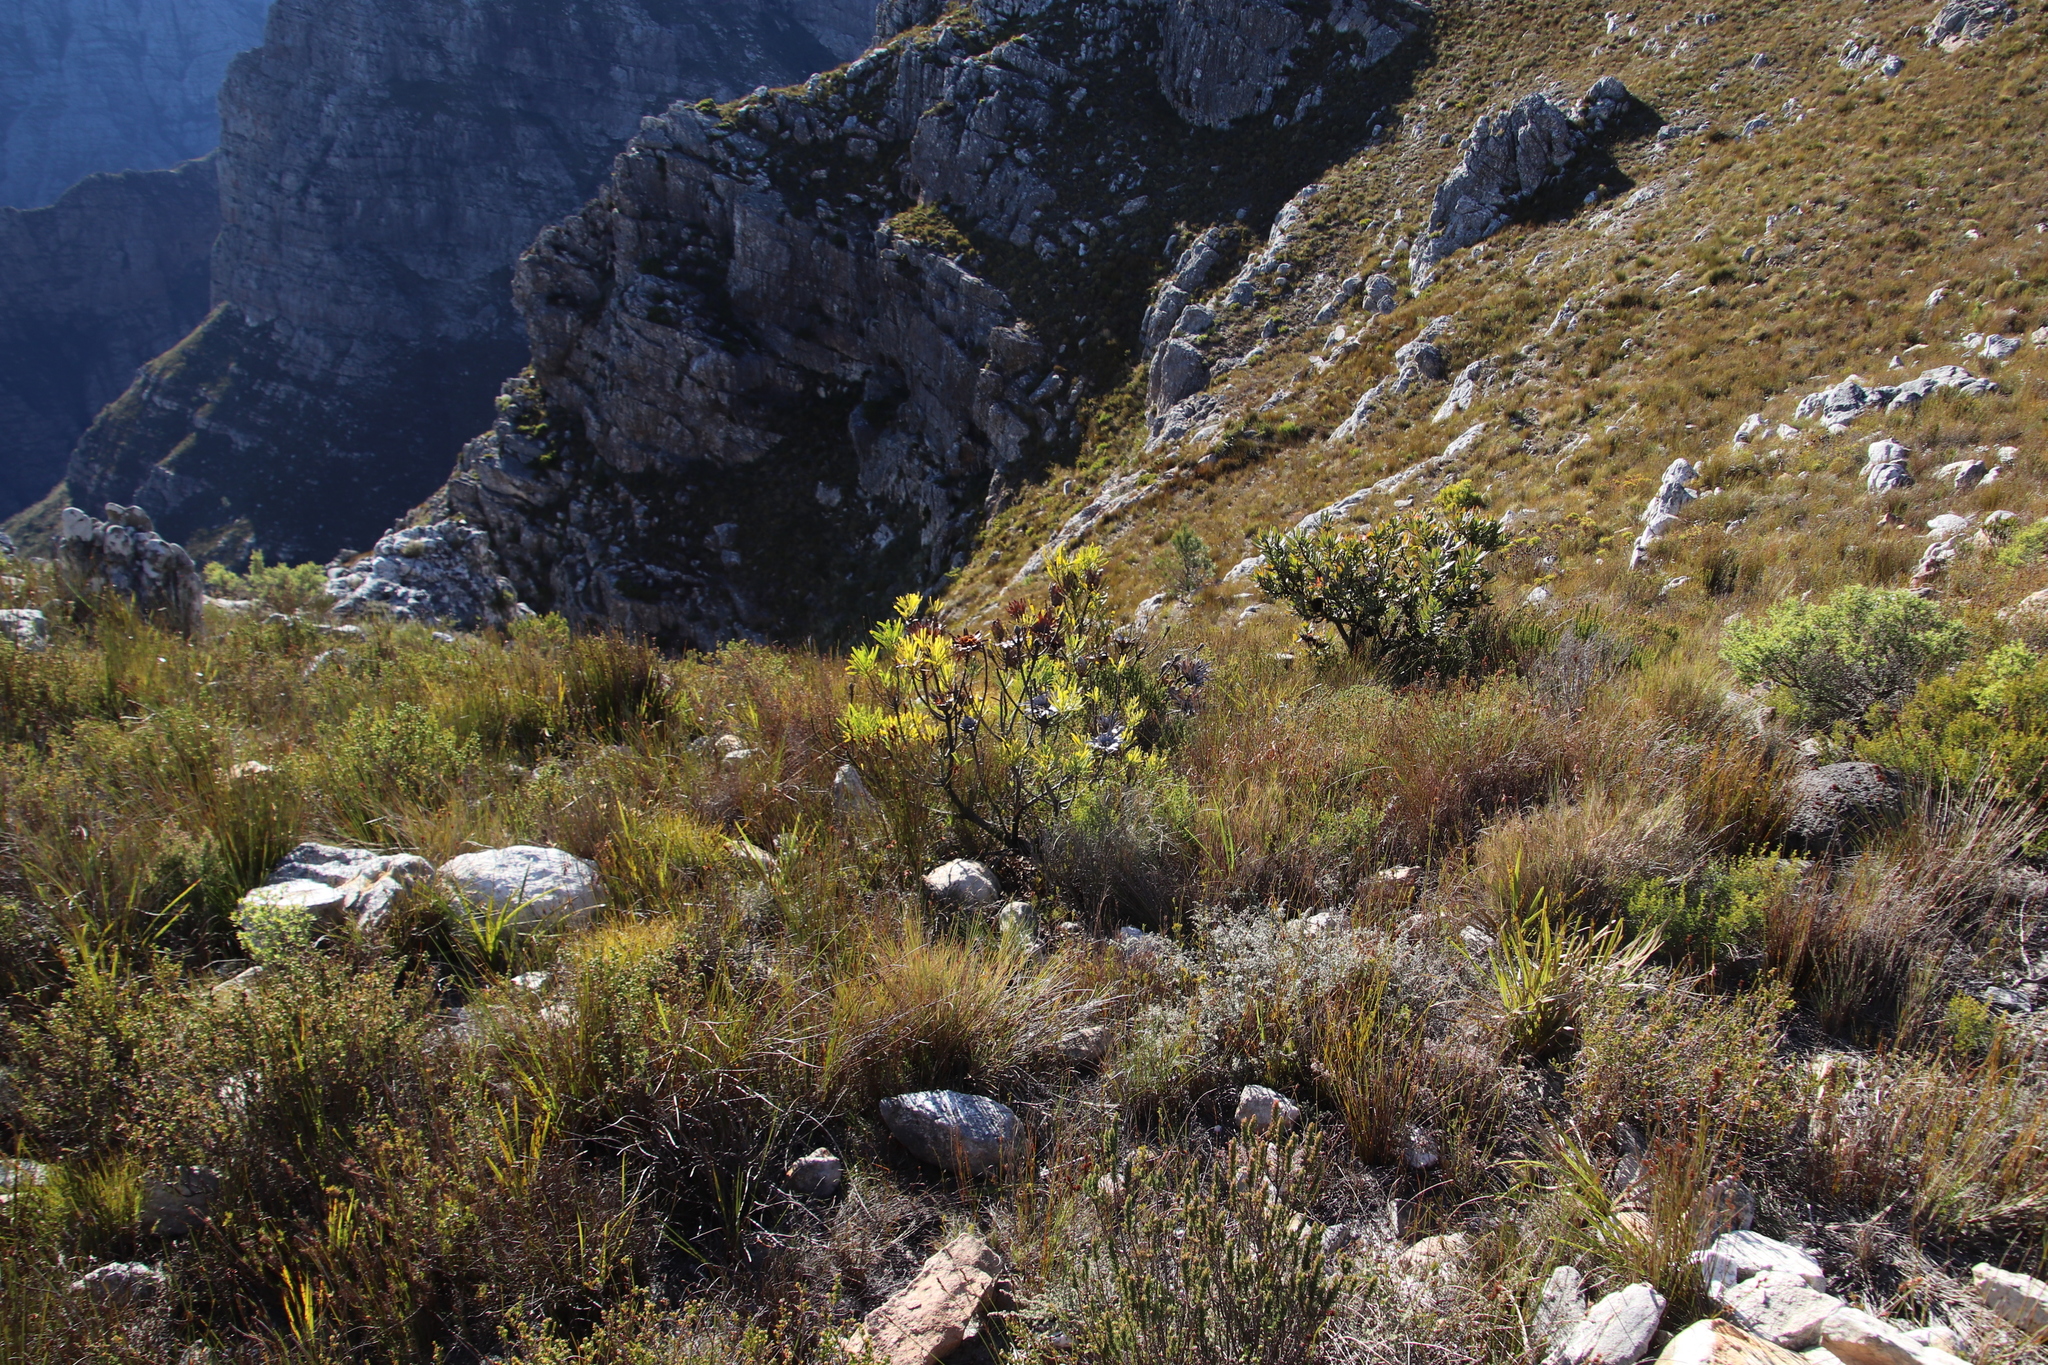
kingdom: Plantae
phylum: Tracheophyta
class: Magnoliopsida
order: Proteales
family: Proteaceae
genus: Protea
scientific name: Protea repens
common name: Sugarbush
